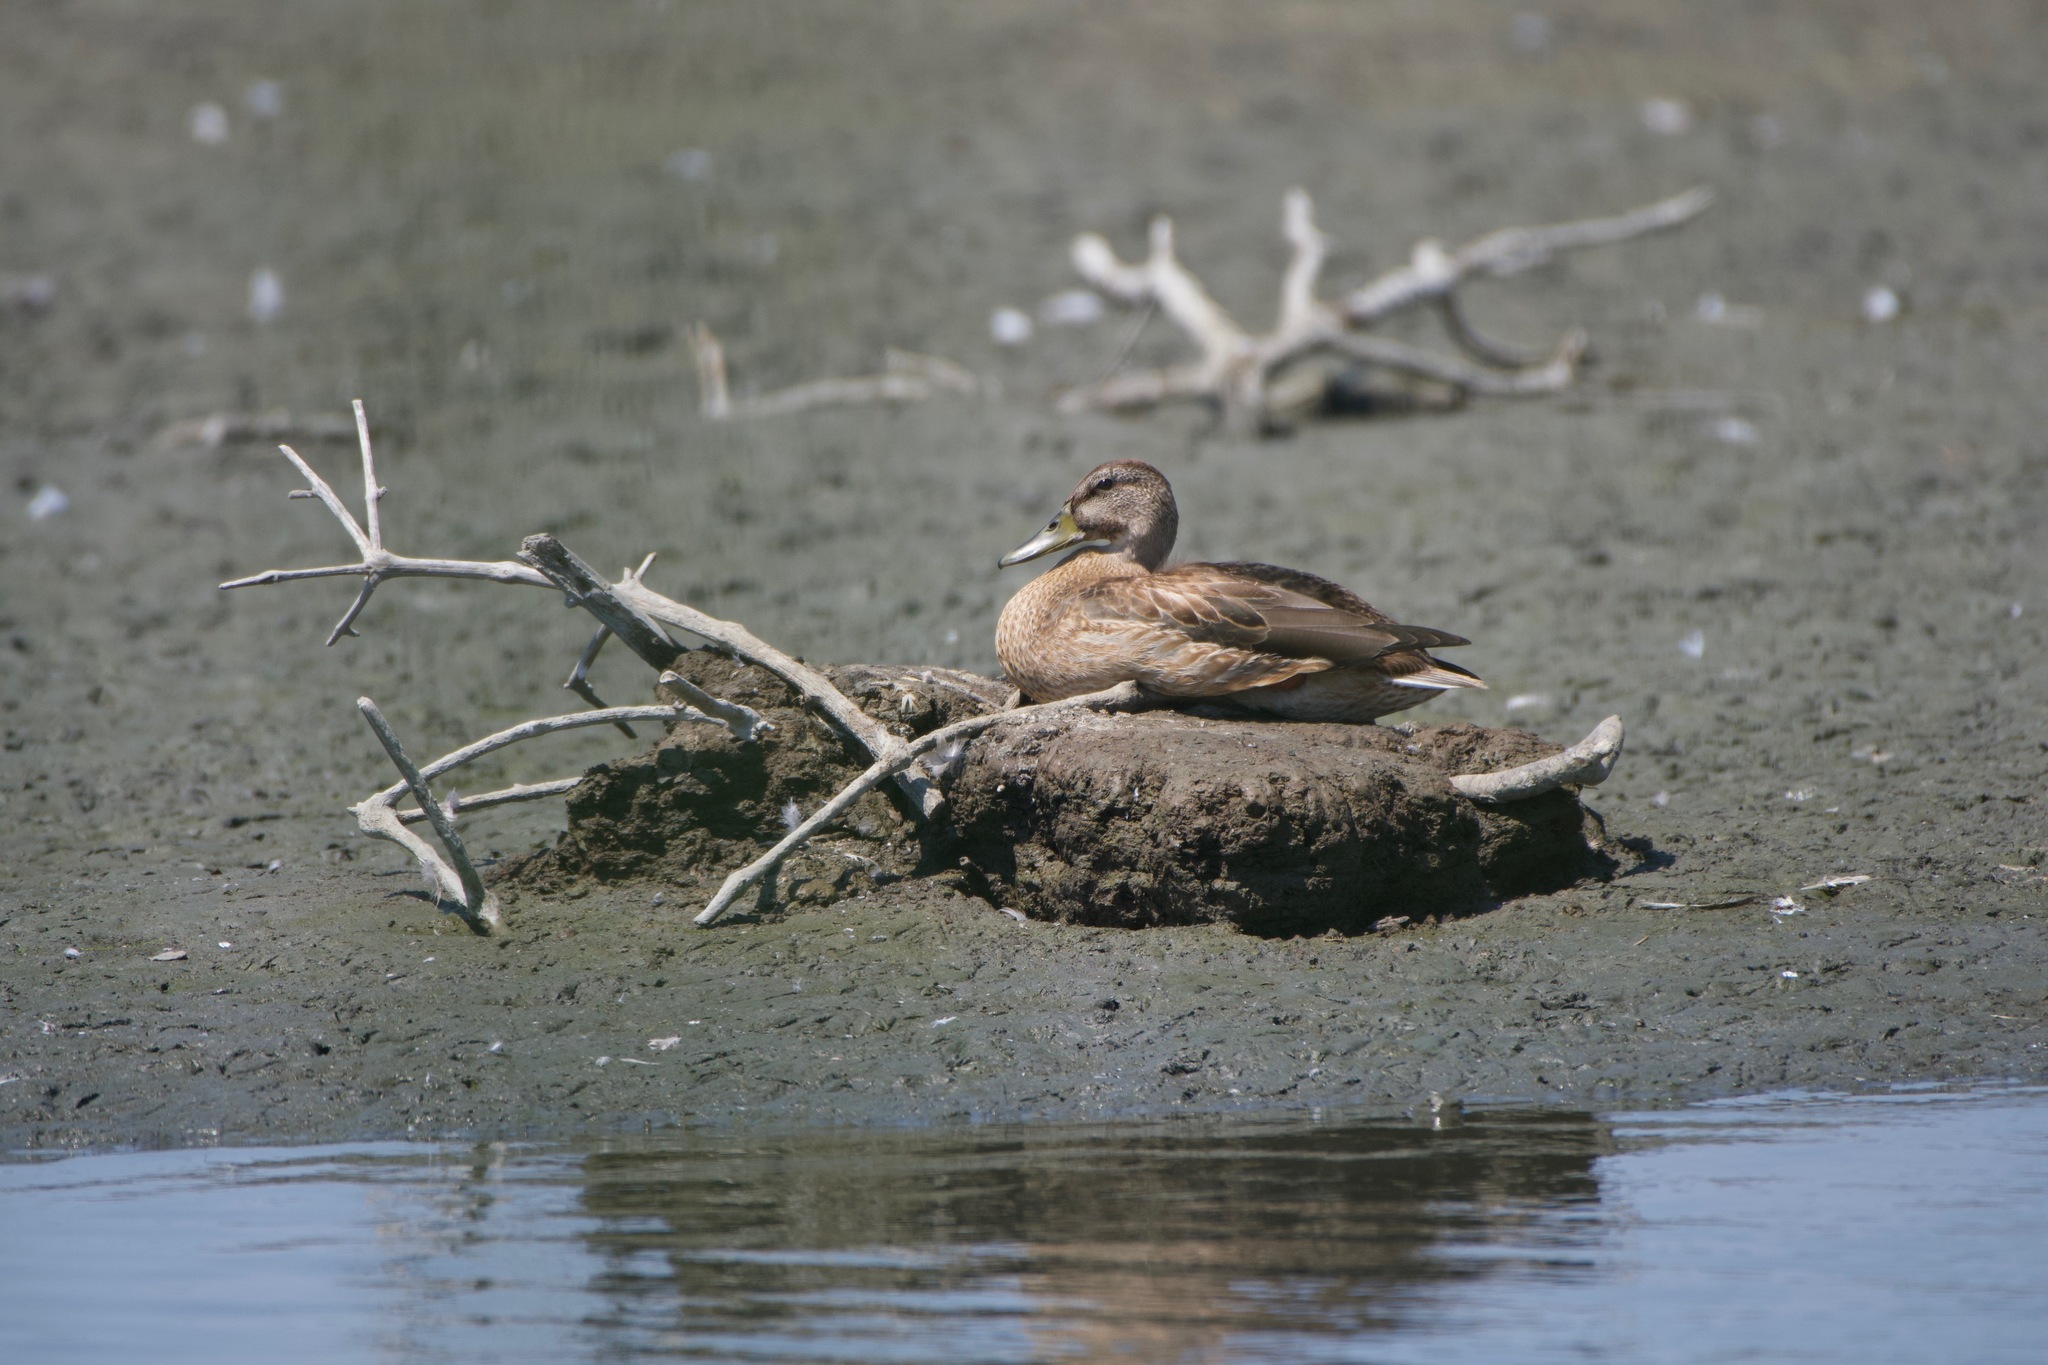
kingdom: Animalia
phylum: Chordata
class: Aves
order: Anseriformes
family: Anatidae
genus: Anas
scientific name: Anas platyrhynchos
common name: Mallard
